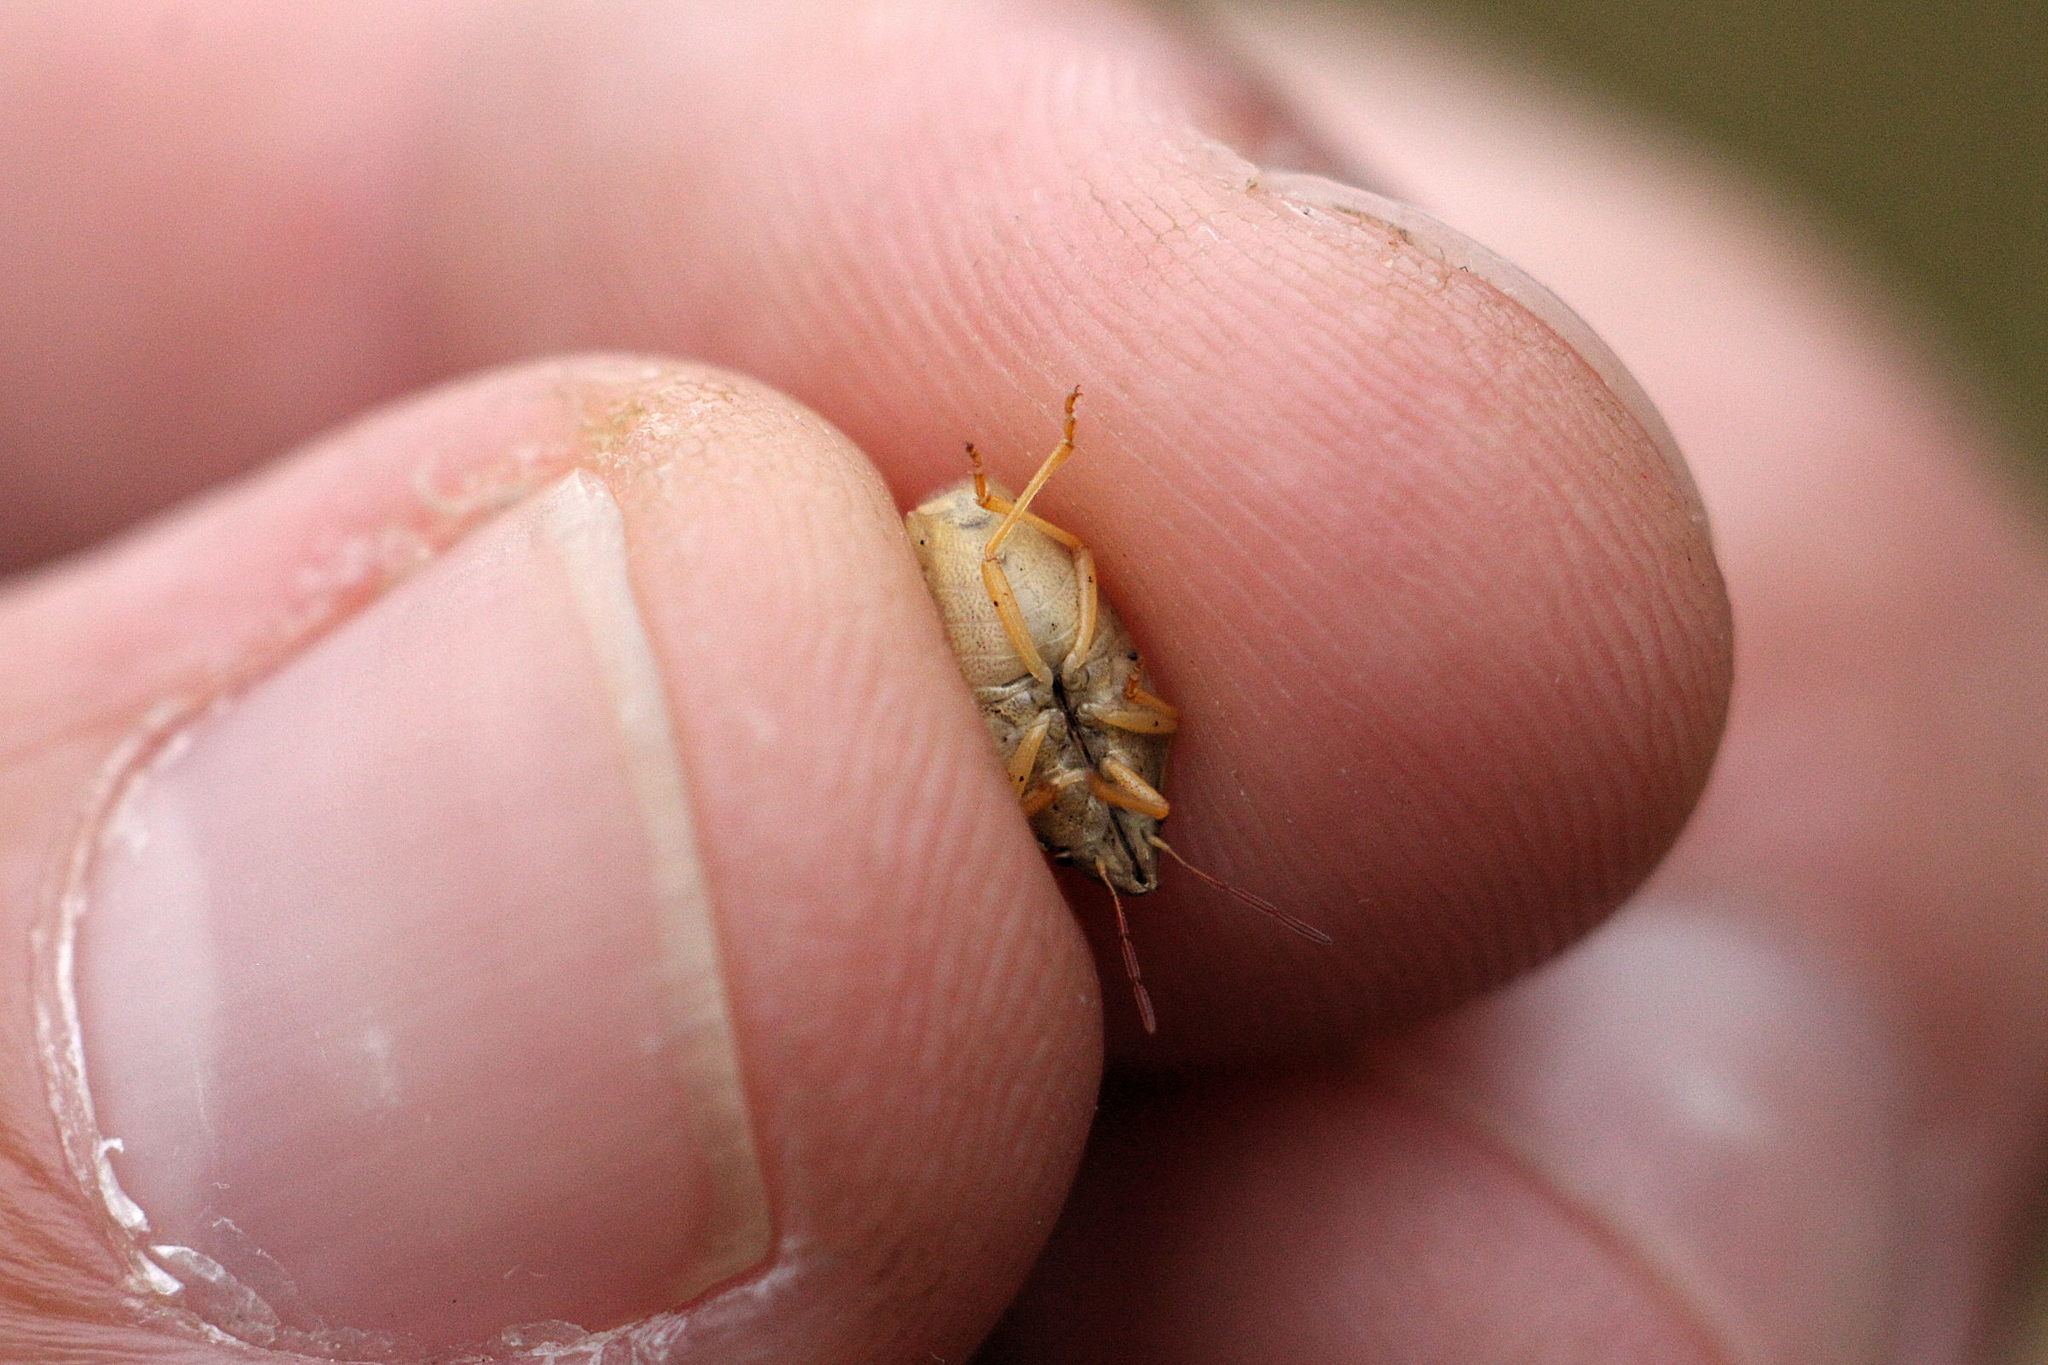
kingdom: Animalia
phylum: Arthropoda
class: Insecta
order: Hemiptera
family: Pentatomidae
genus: Aelia
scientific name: Aelia acuminata
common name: Bishop's mitre
